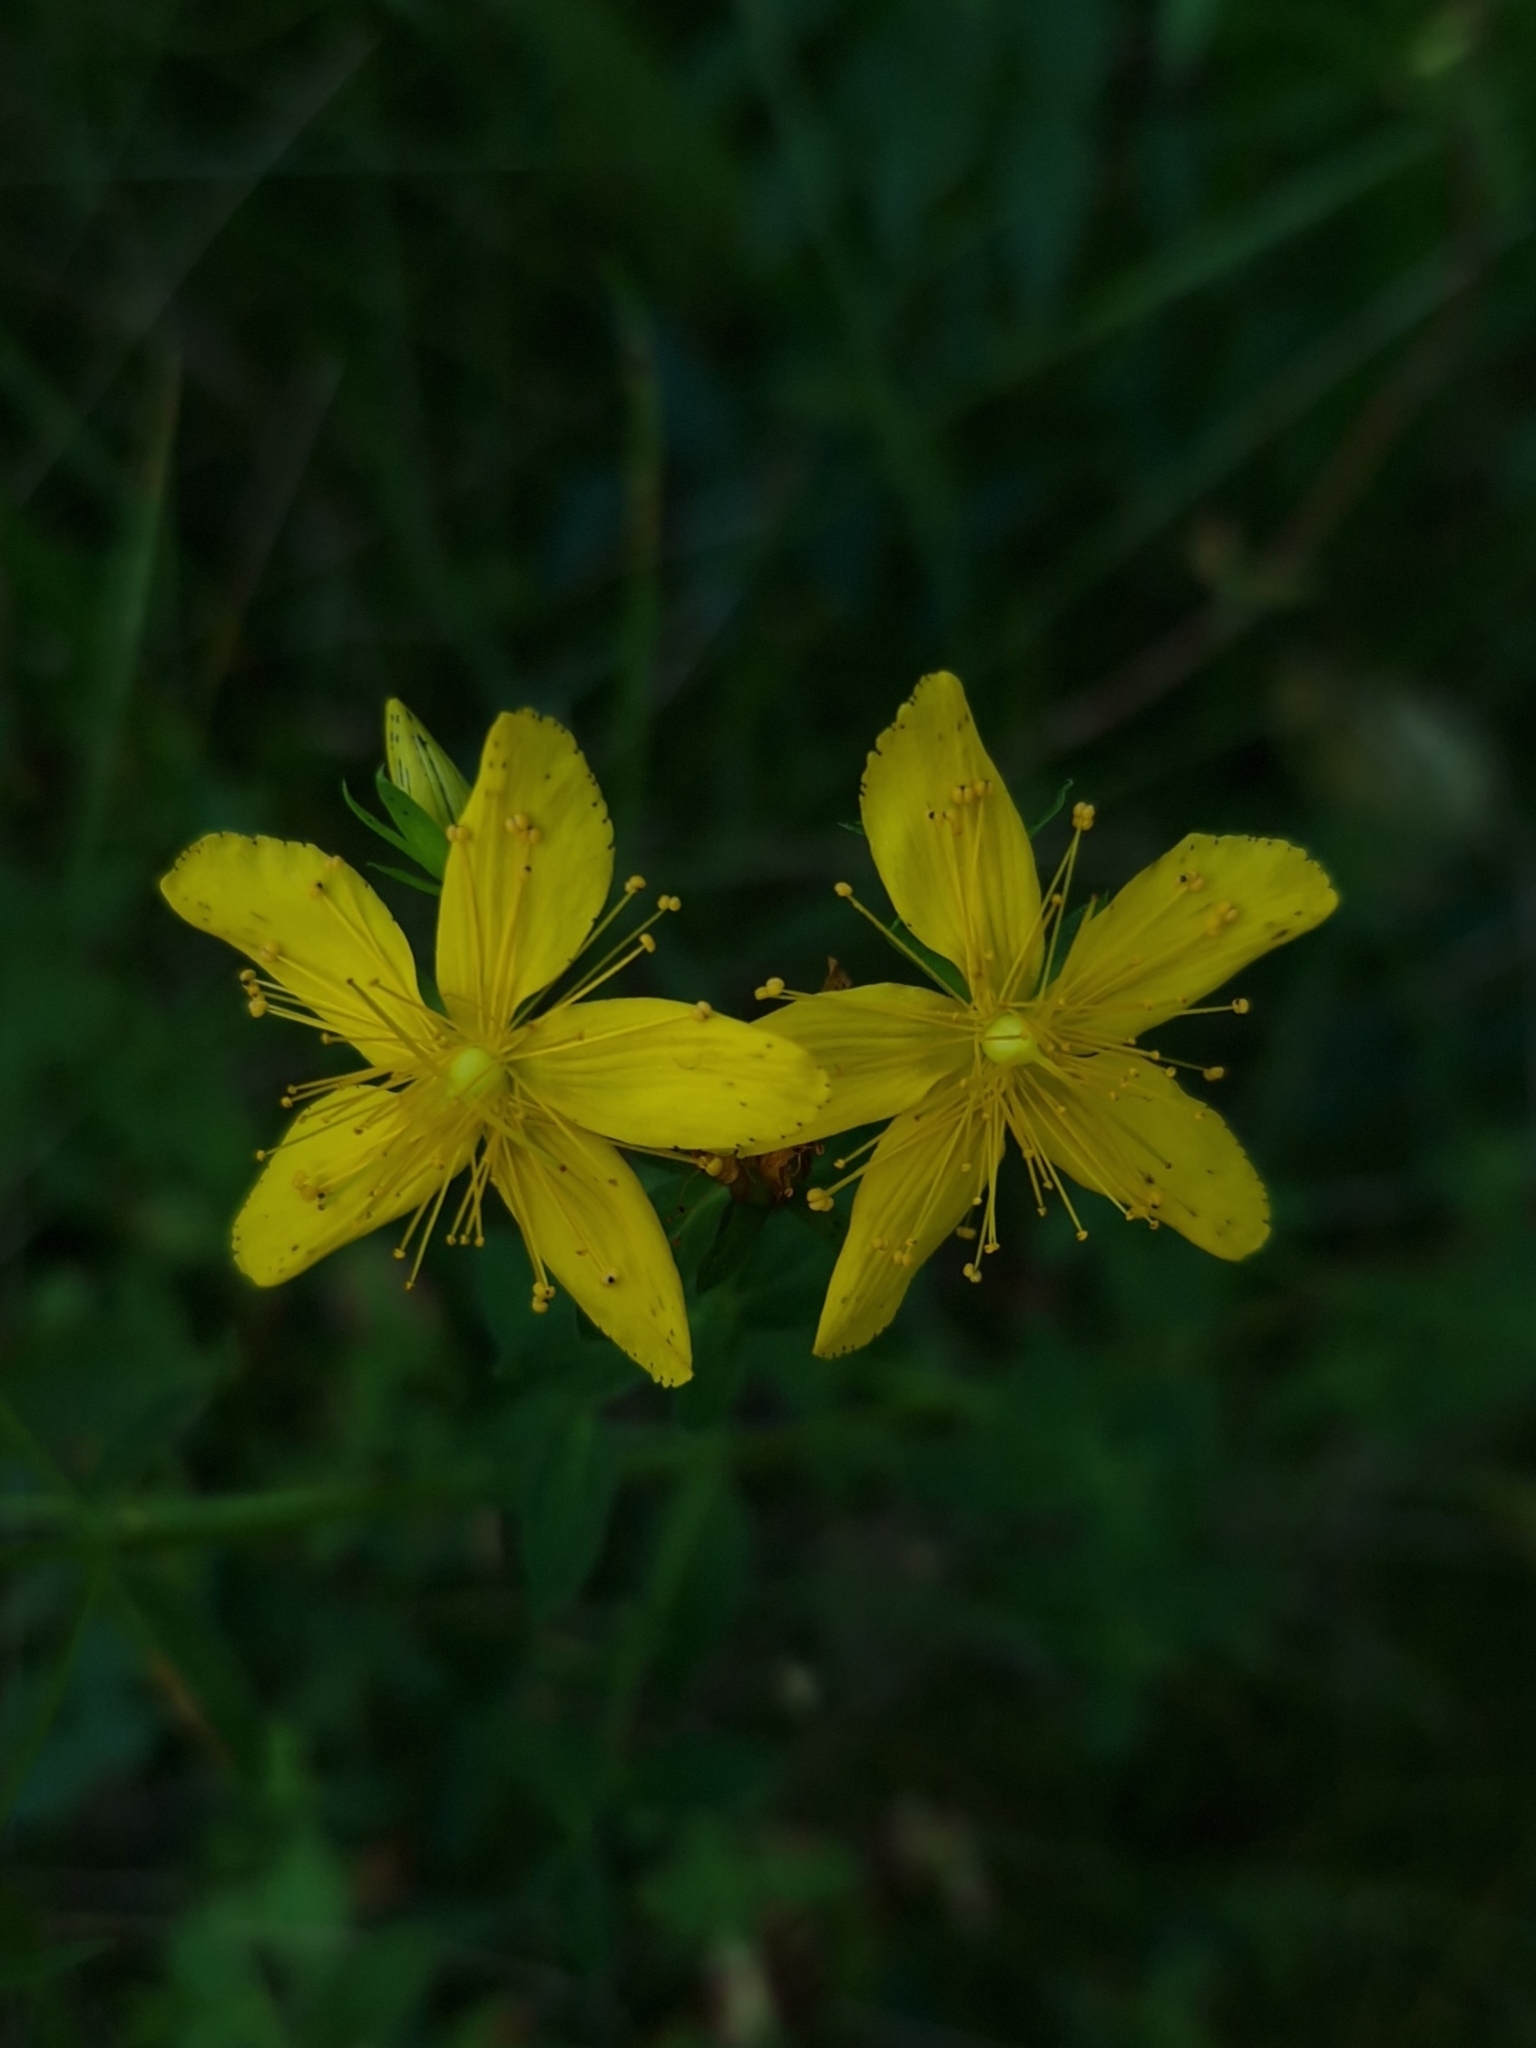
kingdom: Plantae
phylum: Tracheophyta
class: Magnoliopsida
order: Malpighiales
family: Hypericaceae
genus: Hypericum
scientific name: Hypericum perforatum
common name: Common st. johnswort
